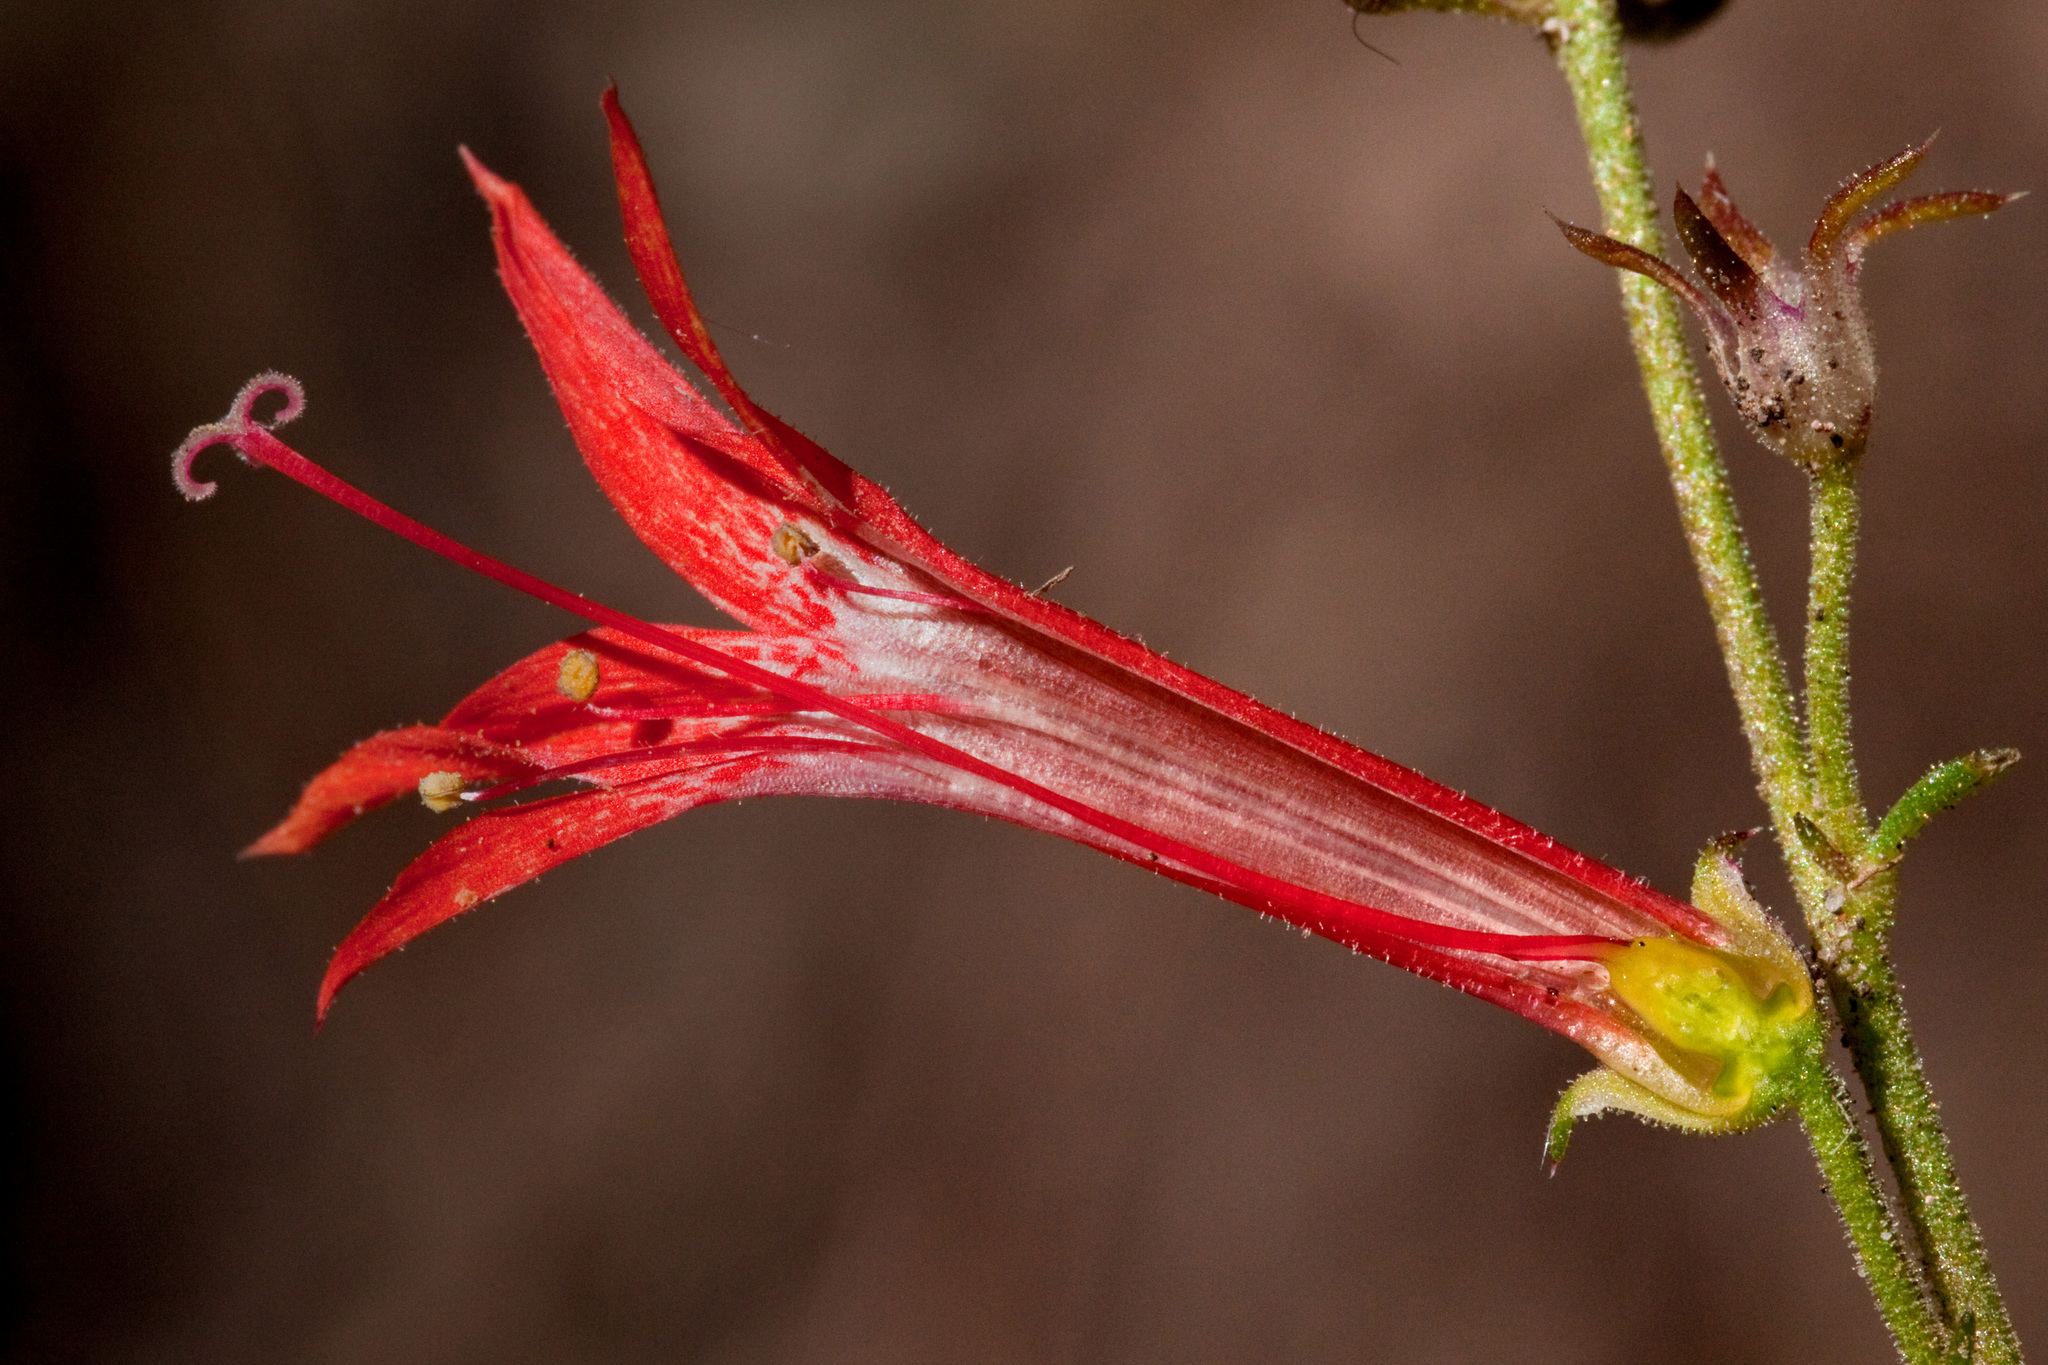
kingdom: Plantae
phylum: Tracheophyta
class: Magnoliopsida
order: Ericales
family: Polemoniaceae
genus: Ipomopsis
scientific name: Ipomopsis aggregata
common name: Scarlet gilia
